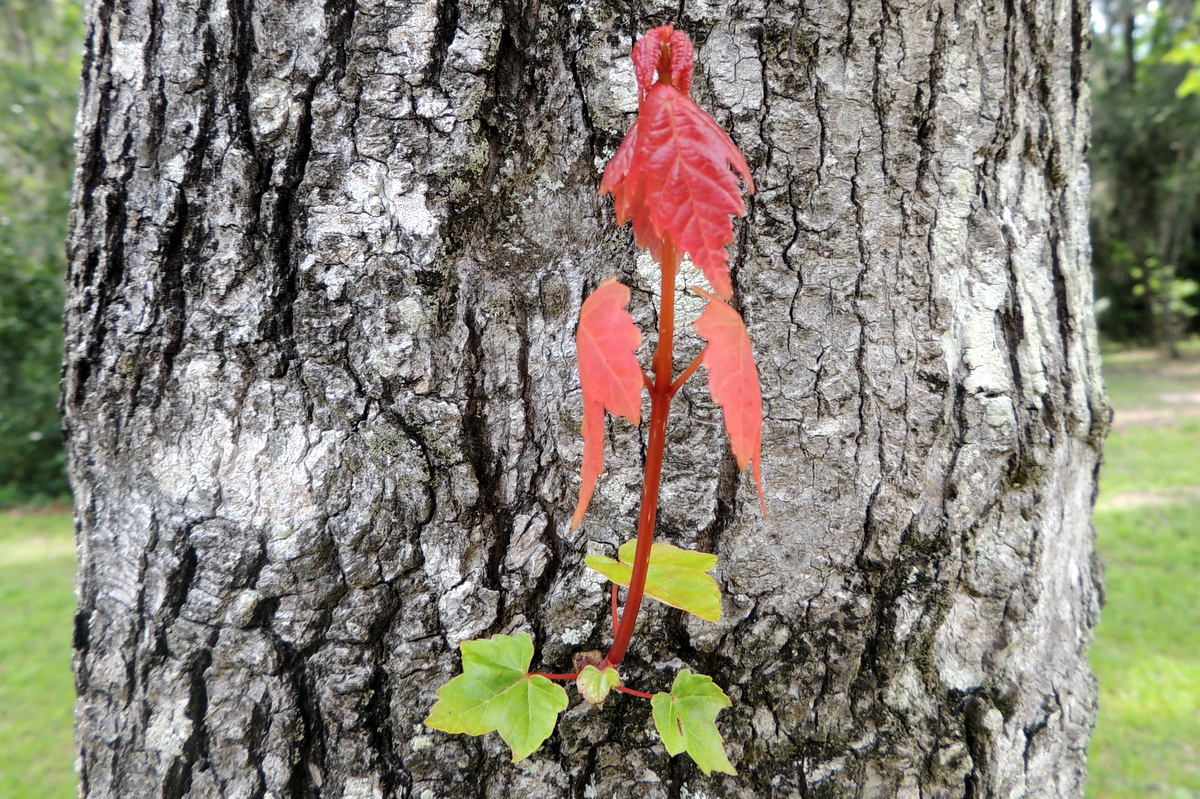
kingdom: Plantae
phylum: Tracheophyta
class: Magnoliopsida
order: Sapindales
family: Sapindaceae
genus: Acer
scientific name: Acer rubrum
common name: Red maple
